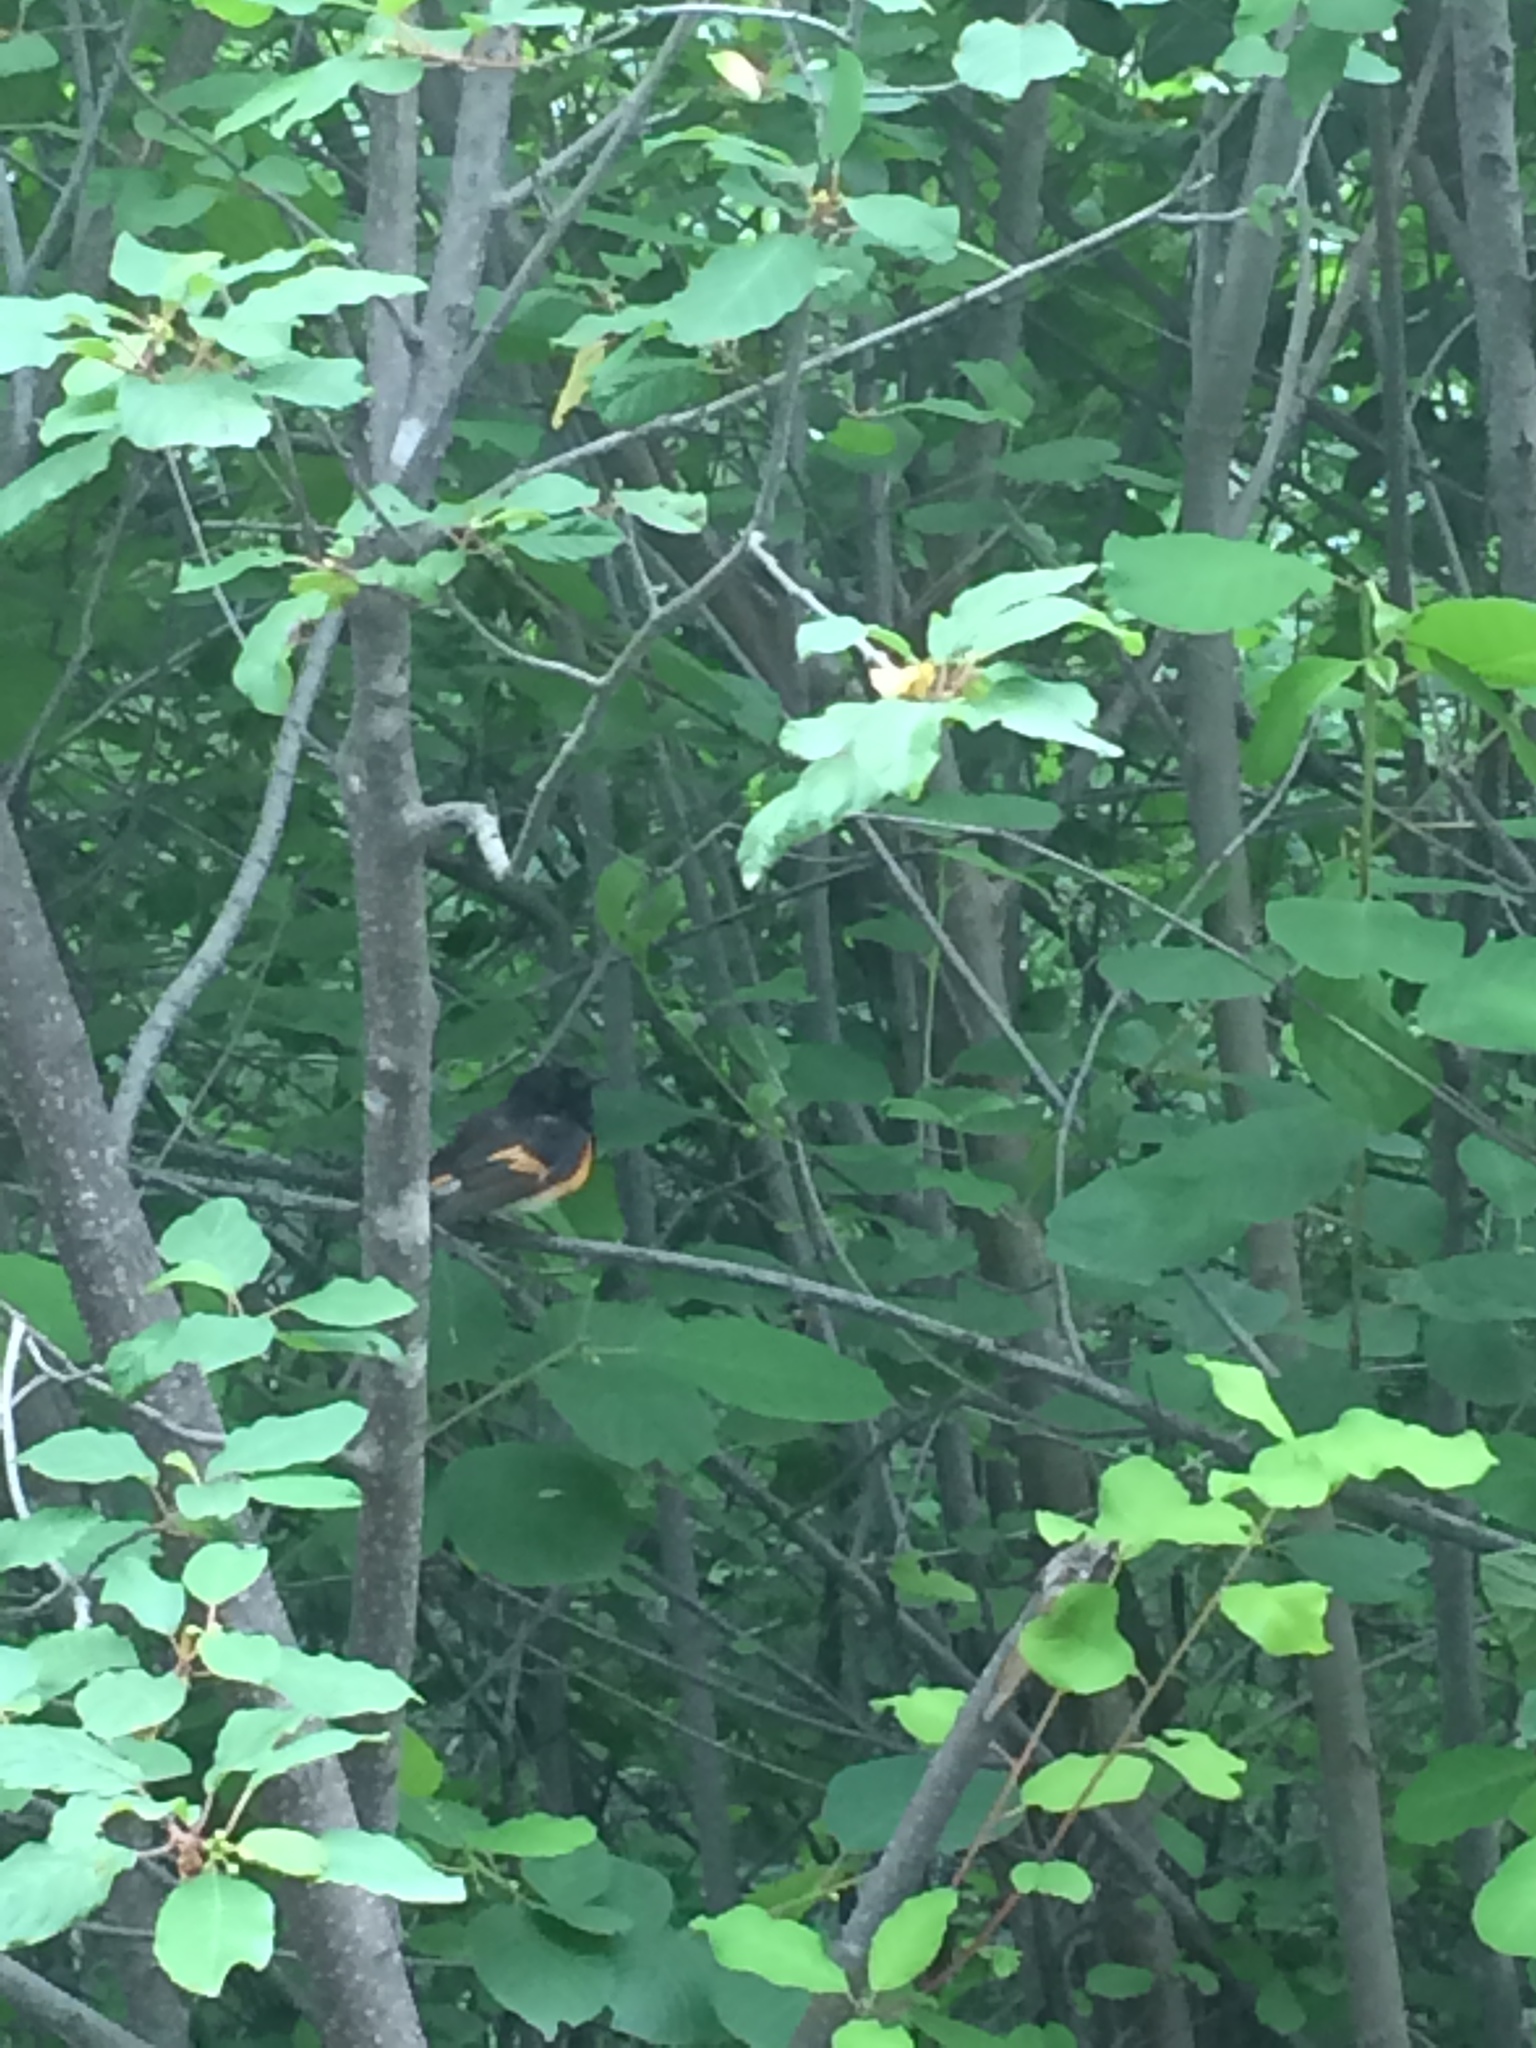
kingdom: Animalia
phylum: Chordata
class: Aves
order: Passeriformes
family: Parulidae
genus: Setophaga
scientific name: Setophaga ruticilla
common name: American redstart
